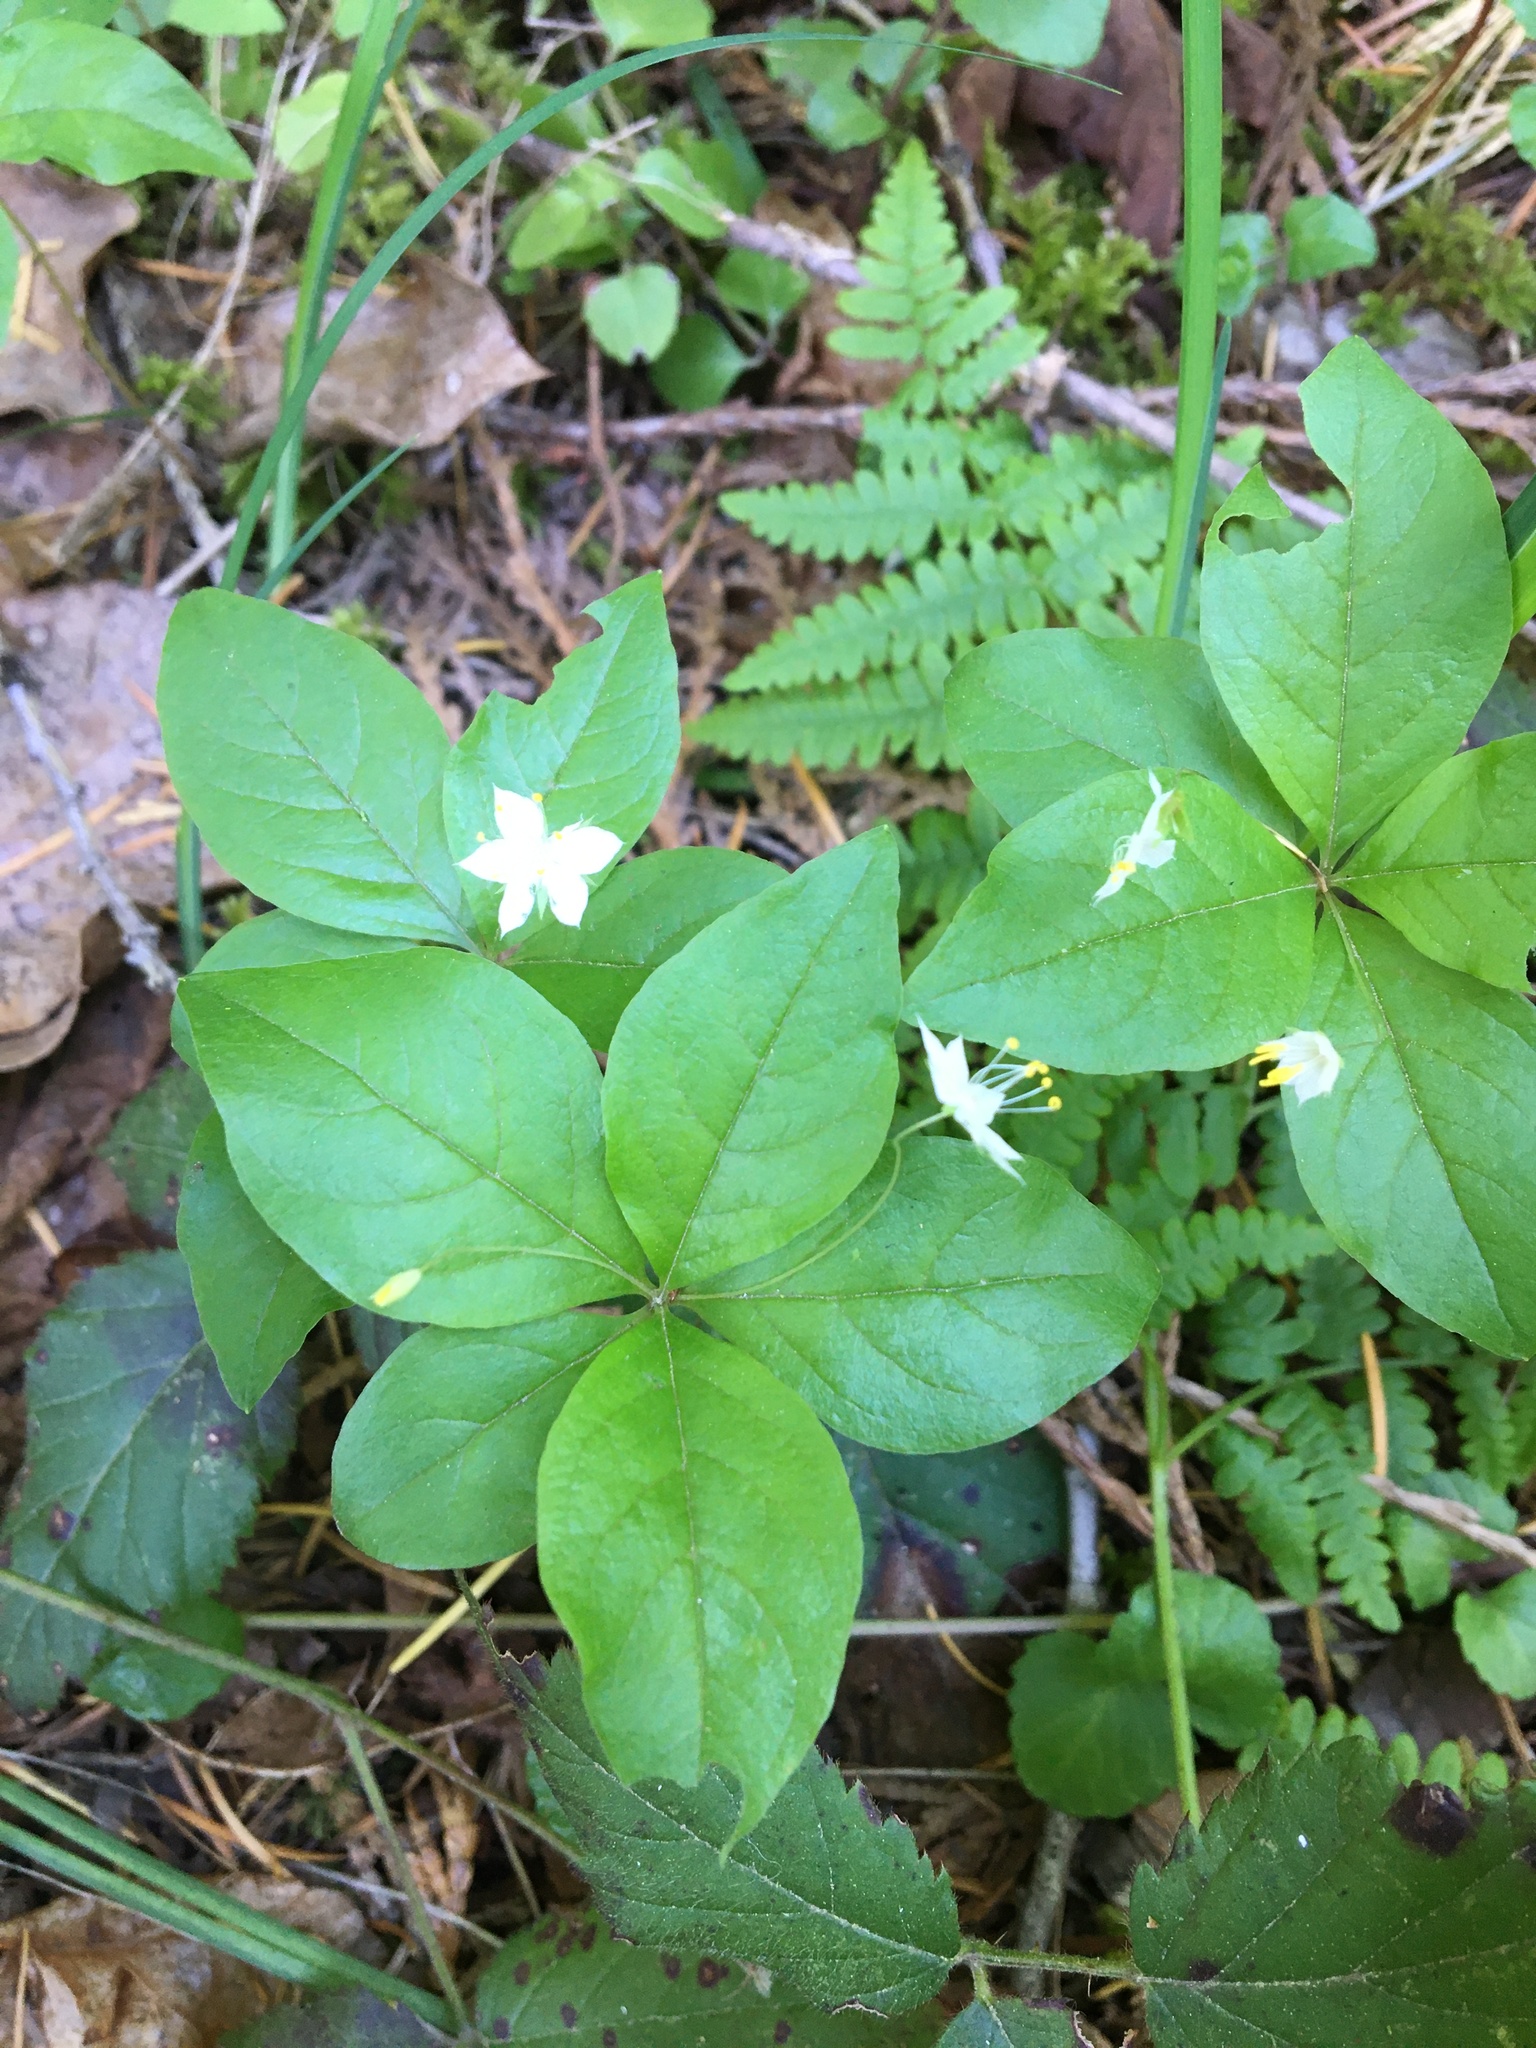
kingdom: Plantae
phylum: Tracheophyta
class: Magnoliopsida
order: Ericales
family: Primulaceae
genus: Lysimachia
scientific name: Lysimachia latifolia
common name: Pacific starflower
